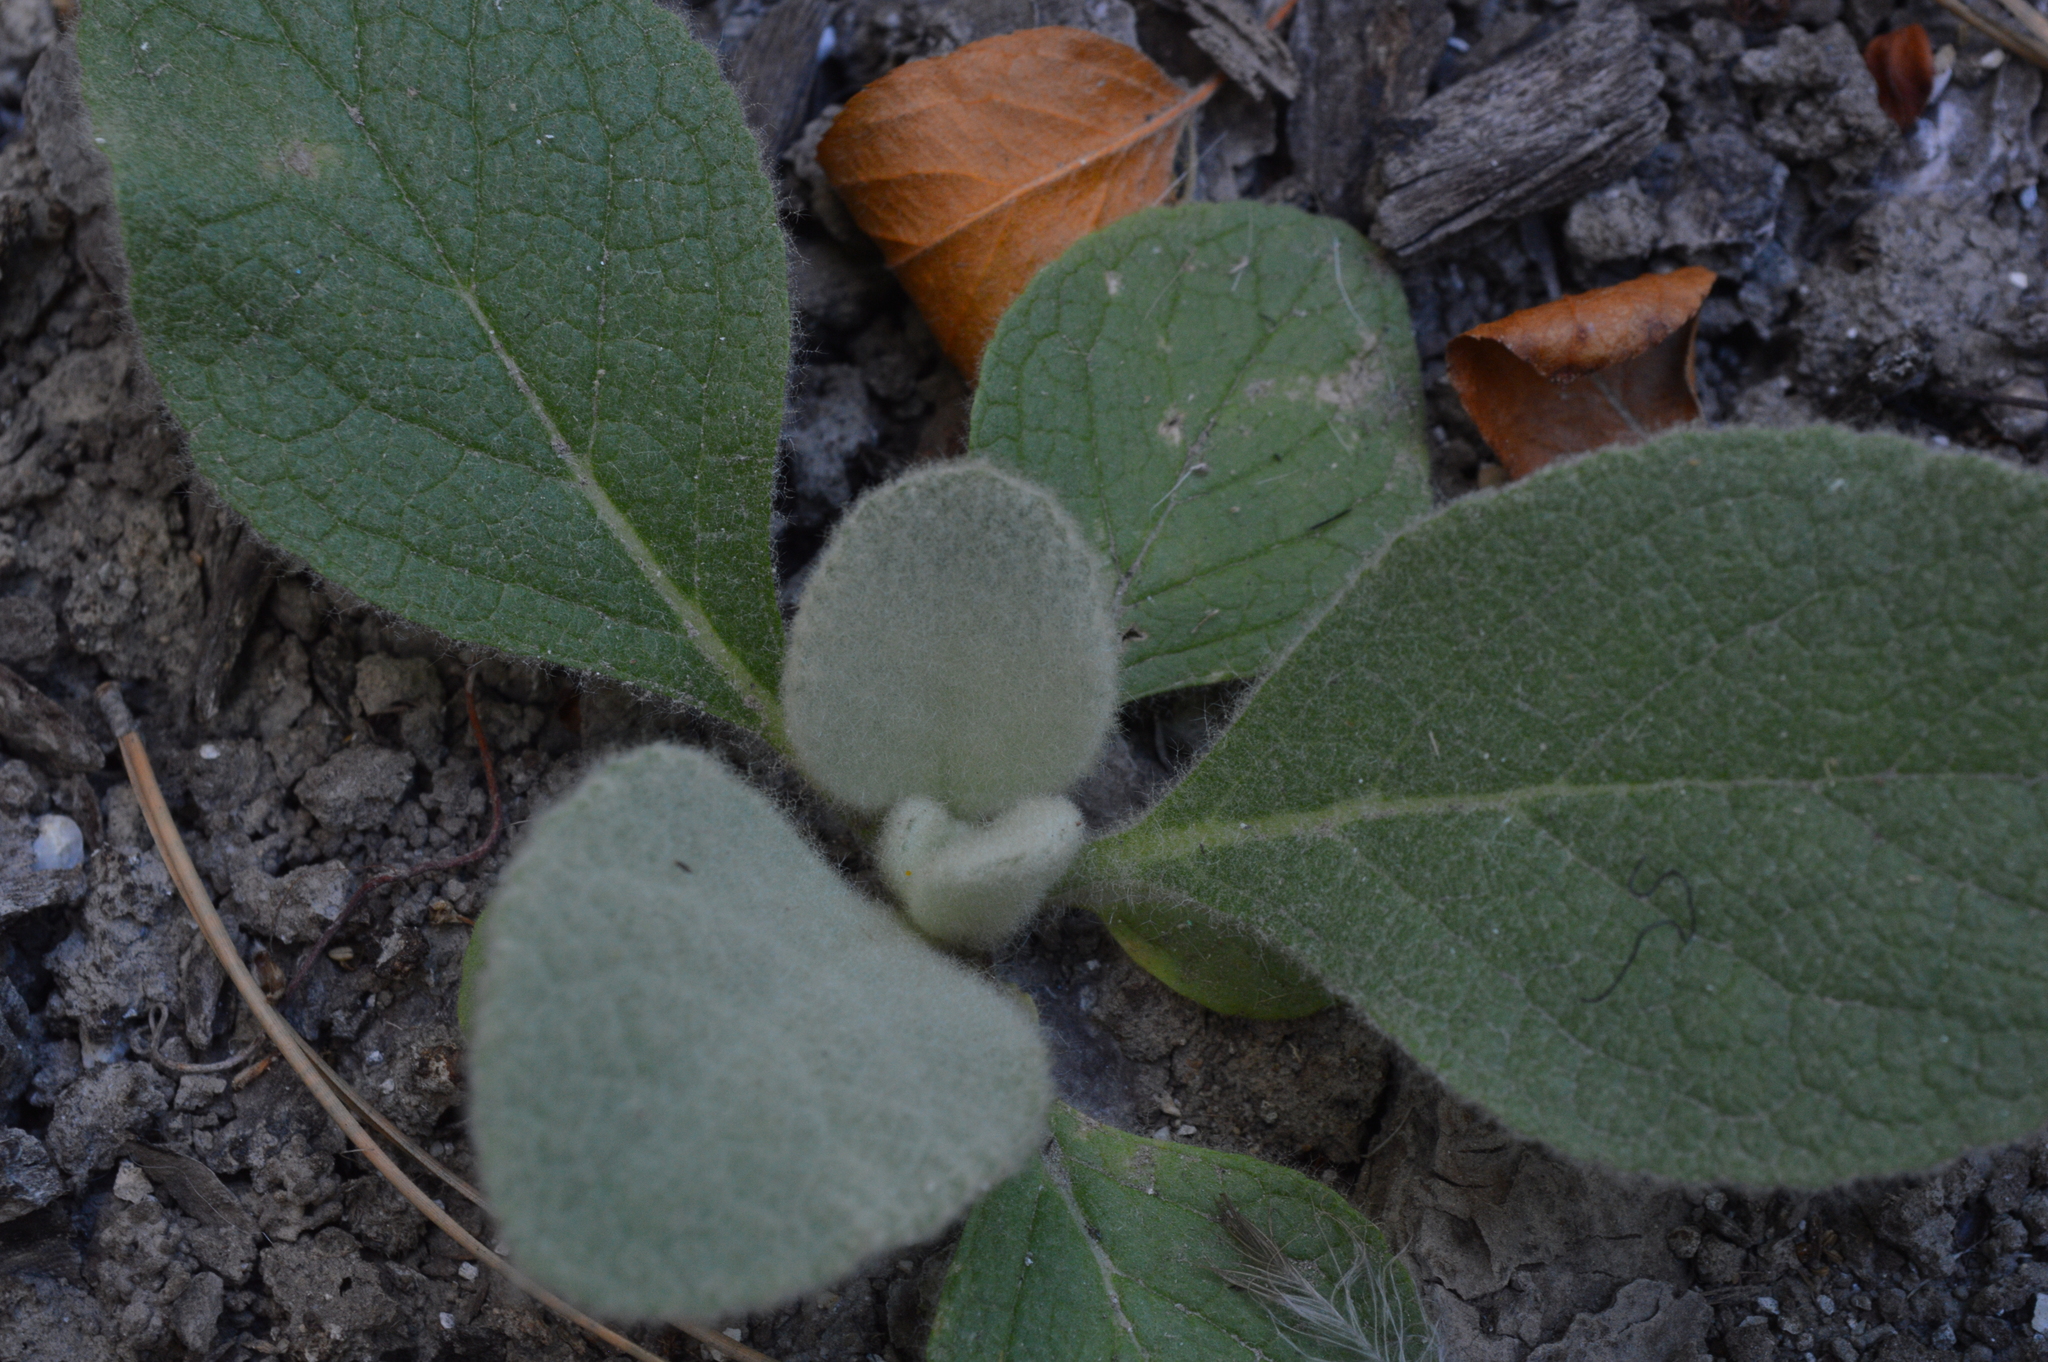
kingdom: Plantae
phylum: Tracheophyta
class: Magnoliopsida
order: Lamiales
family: Scrophulariaceae
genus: Verbascum
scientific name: Verbascum thapsus
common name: Common mullein
